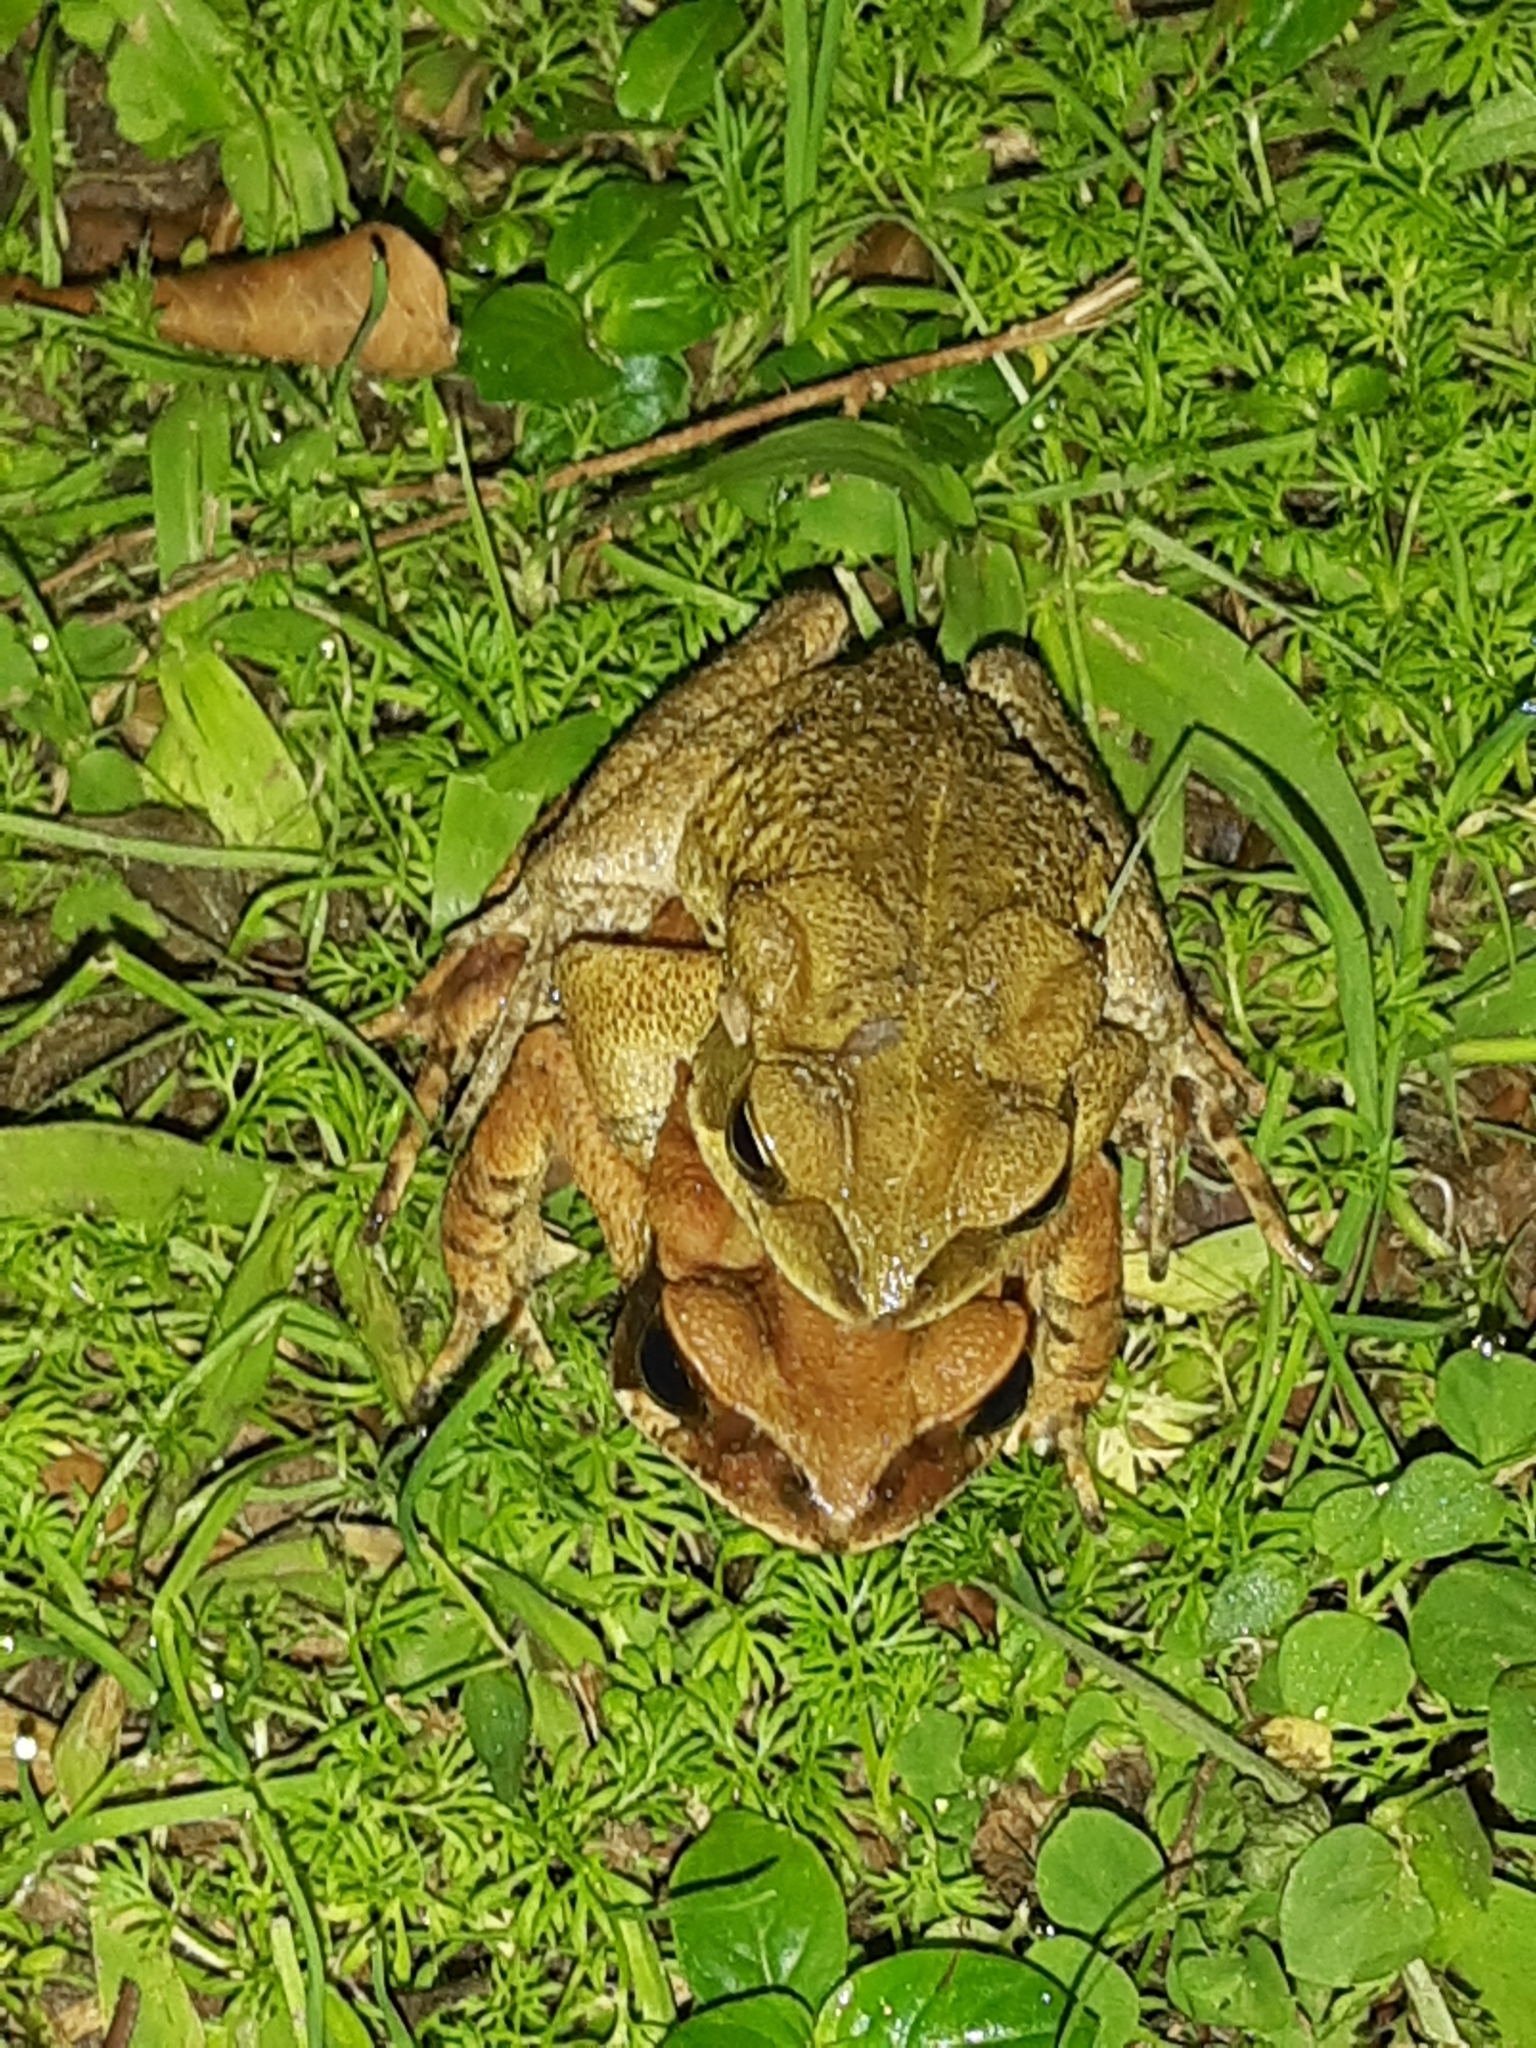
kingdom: Animalia
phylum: Chordata
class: Amphibia
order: Anura
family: Bufonidae
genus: Rhinella
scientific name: Rhinella ornata
